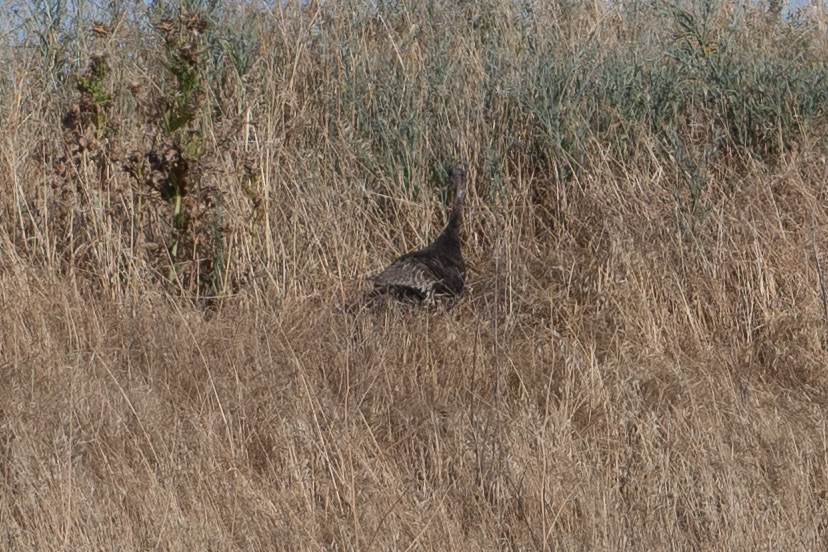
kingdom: Animalia
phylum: Chordata
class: Aves
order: Galliformes
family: Phasianidae
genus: Meleagris
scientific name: Meleagris gallopavo
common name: Wild turkey
